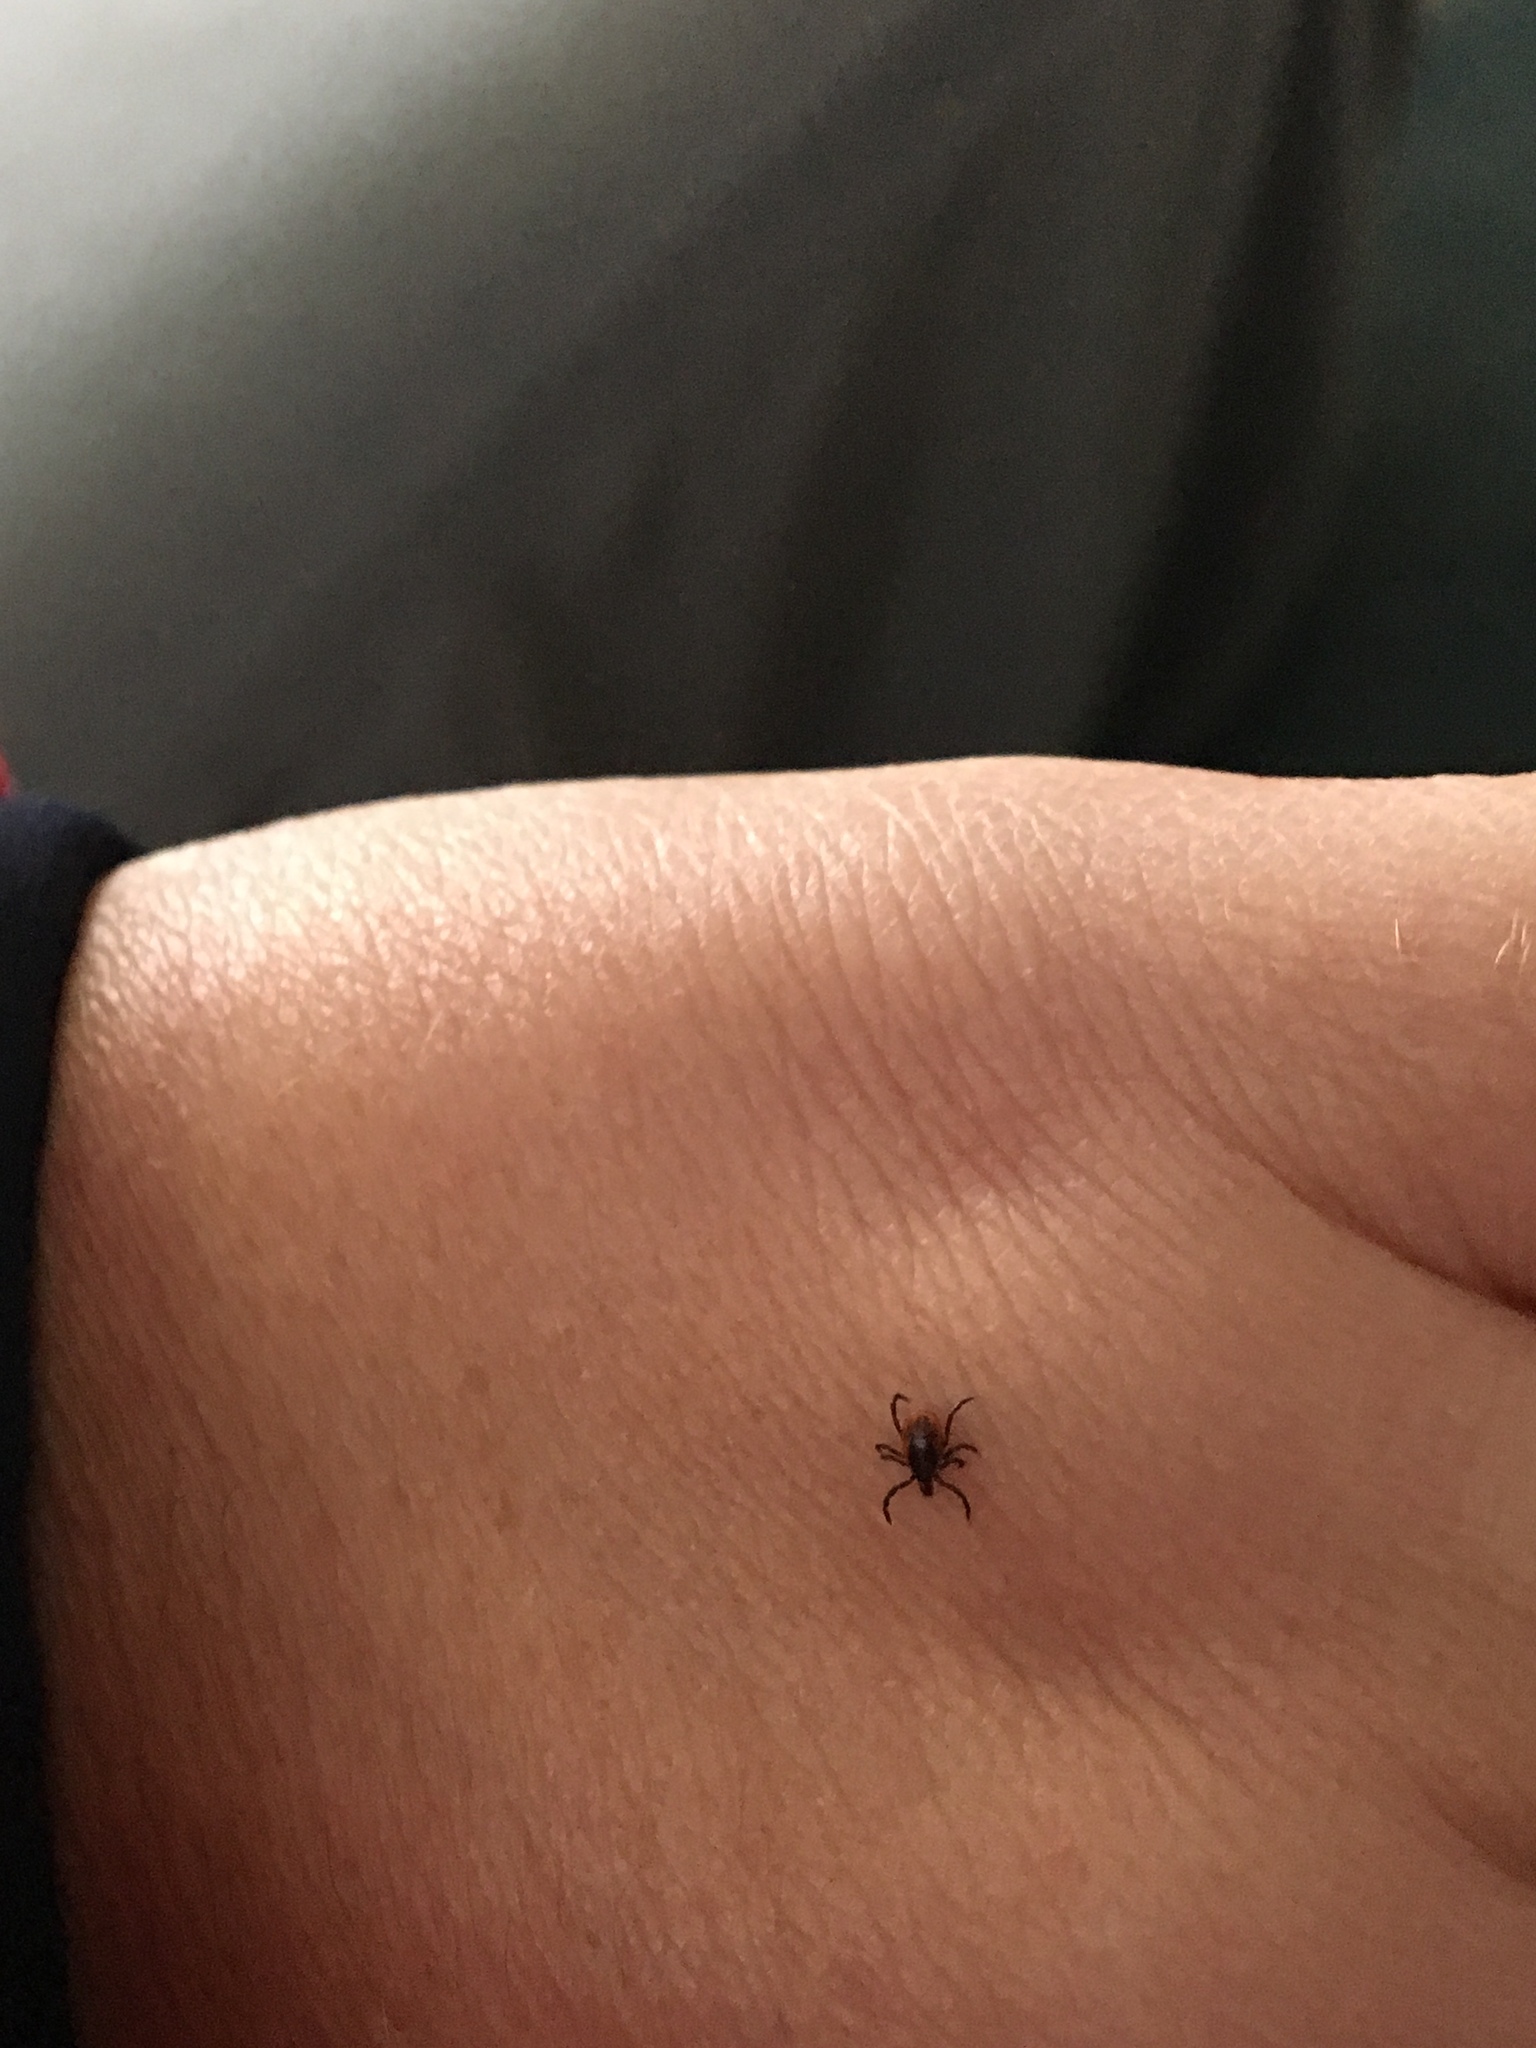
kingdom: Animalia
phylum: Arthropoda
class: Arachnida
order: Ixodida
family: Ixodidae
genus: Ixodes
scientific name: Ixodes scapularis
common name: Black legged tick
